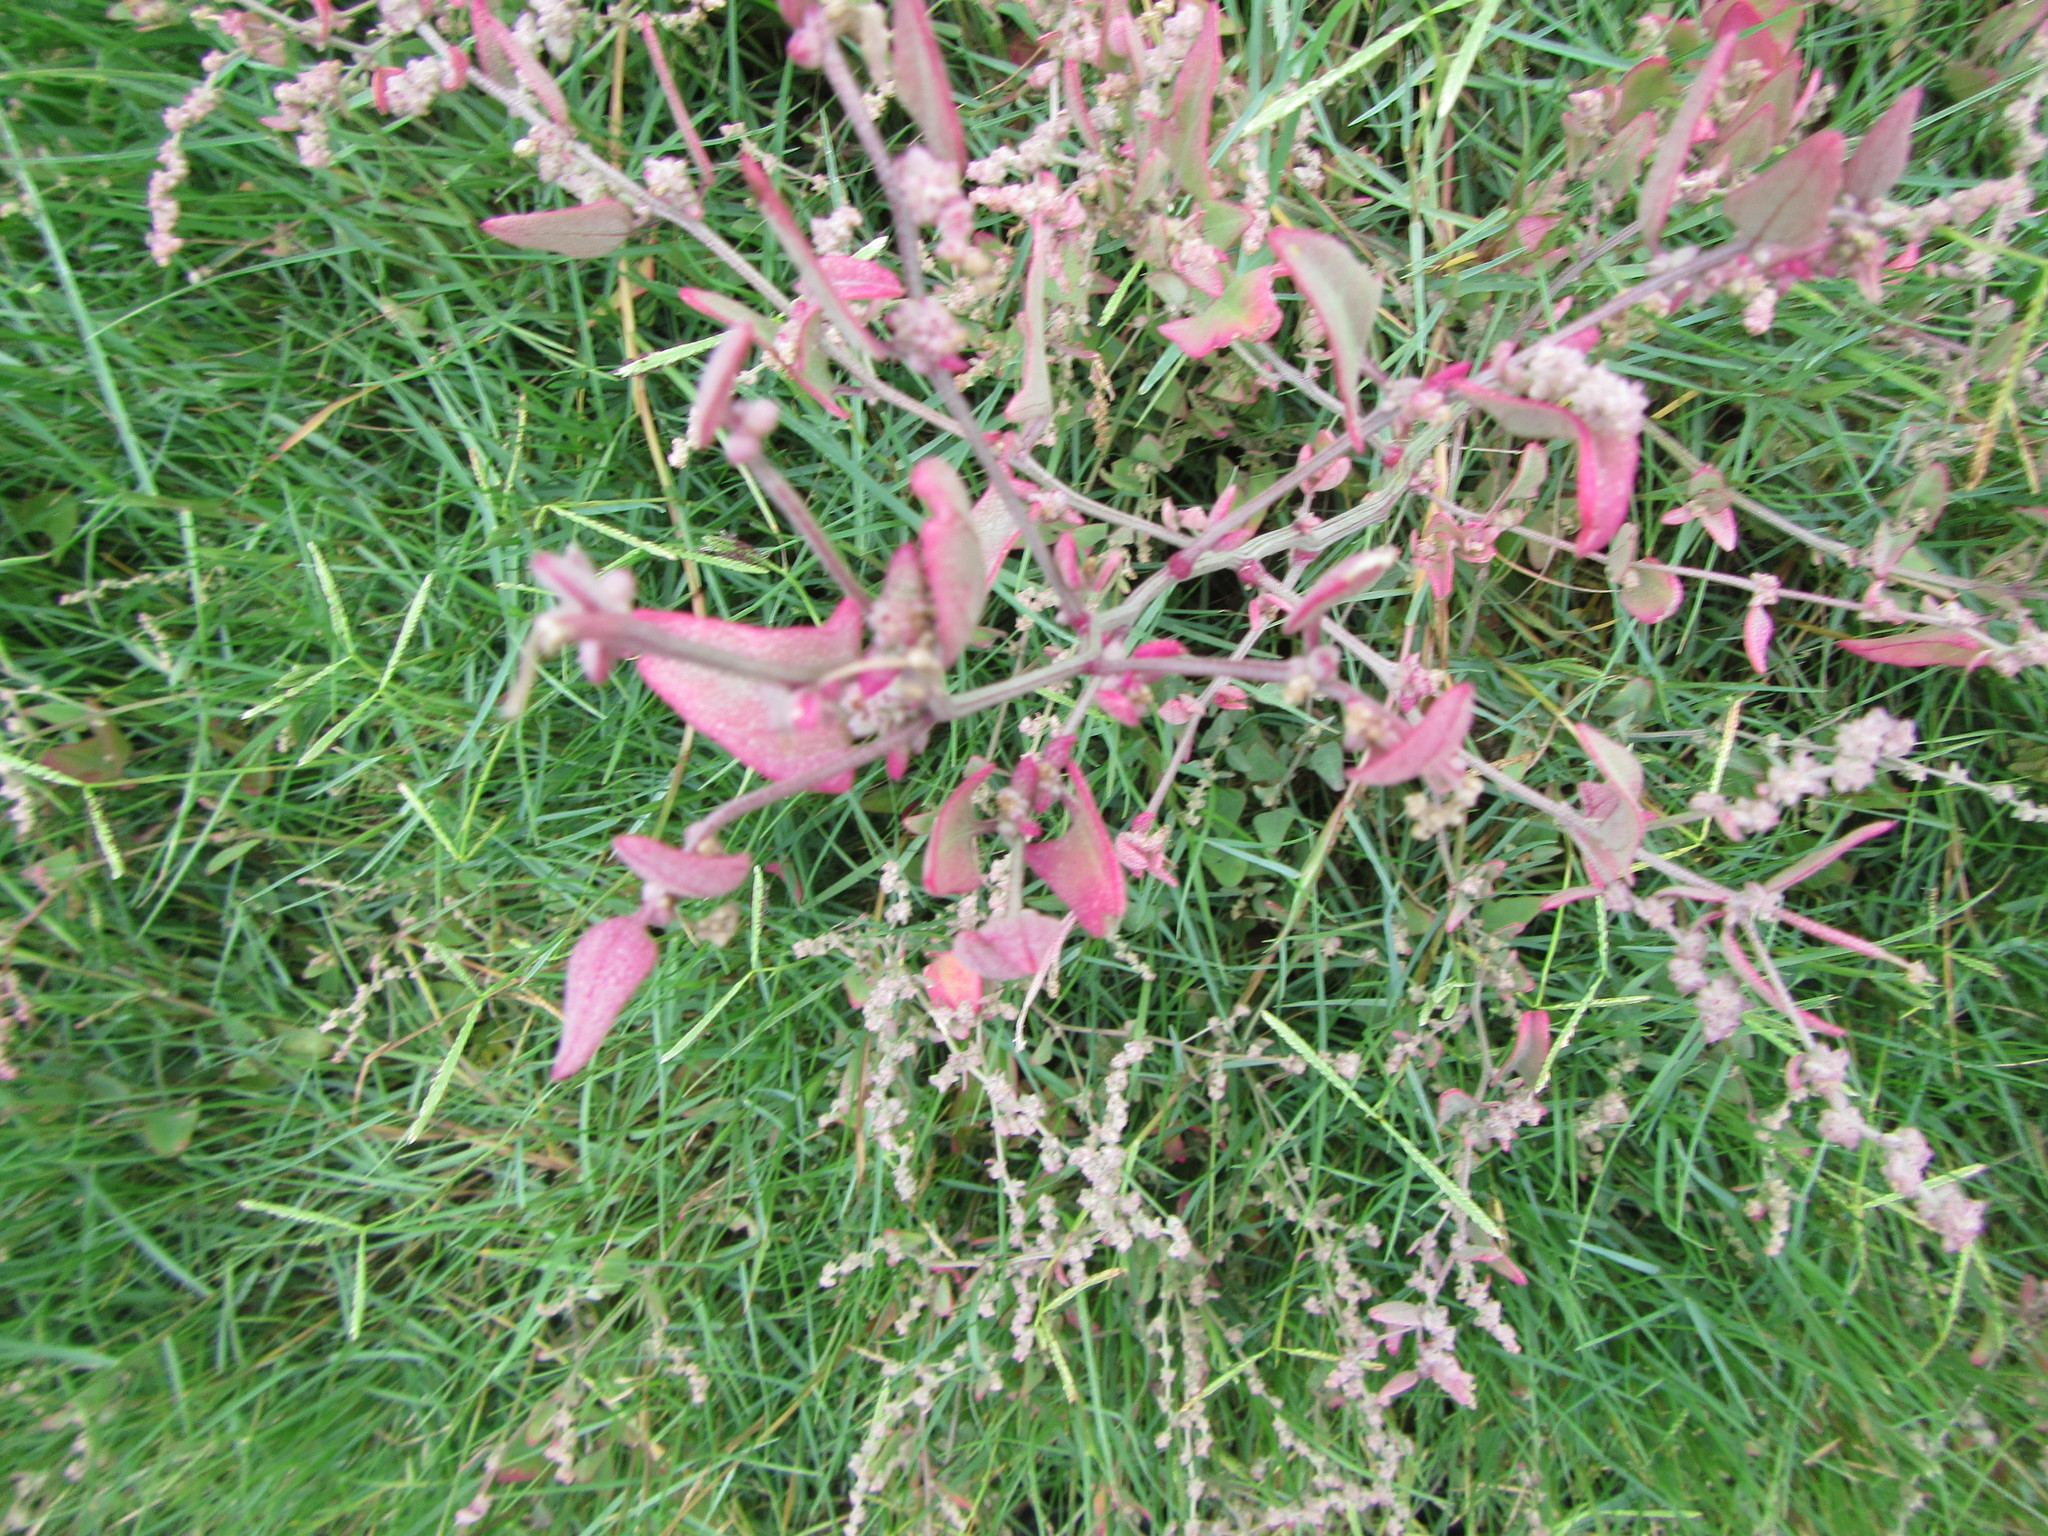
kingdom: Plantae
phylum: Tracheophyta
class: Magnoliopsida
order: Caryophyllales
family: Amaranthaceae
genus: Atriplex
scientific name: Atriplex prostrata
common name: Spear-leaved orache
